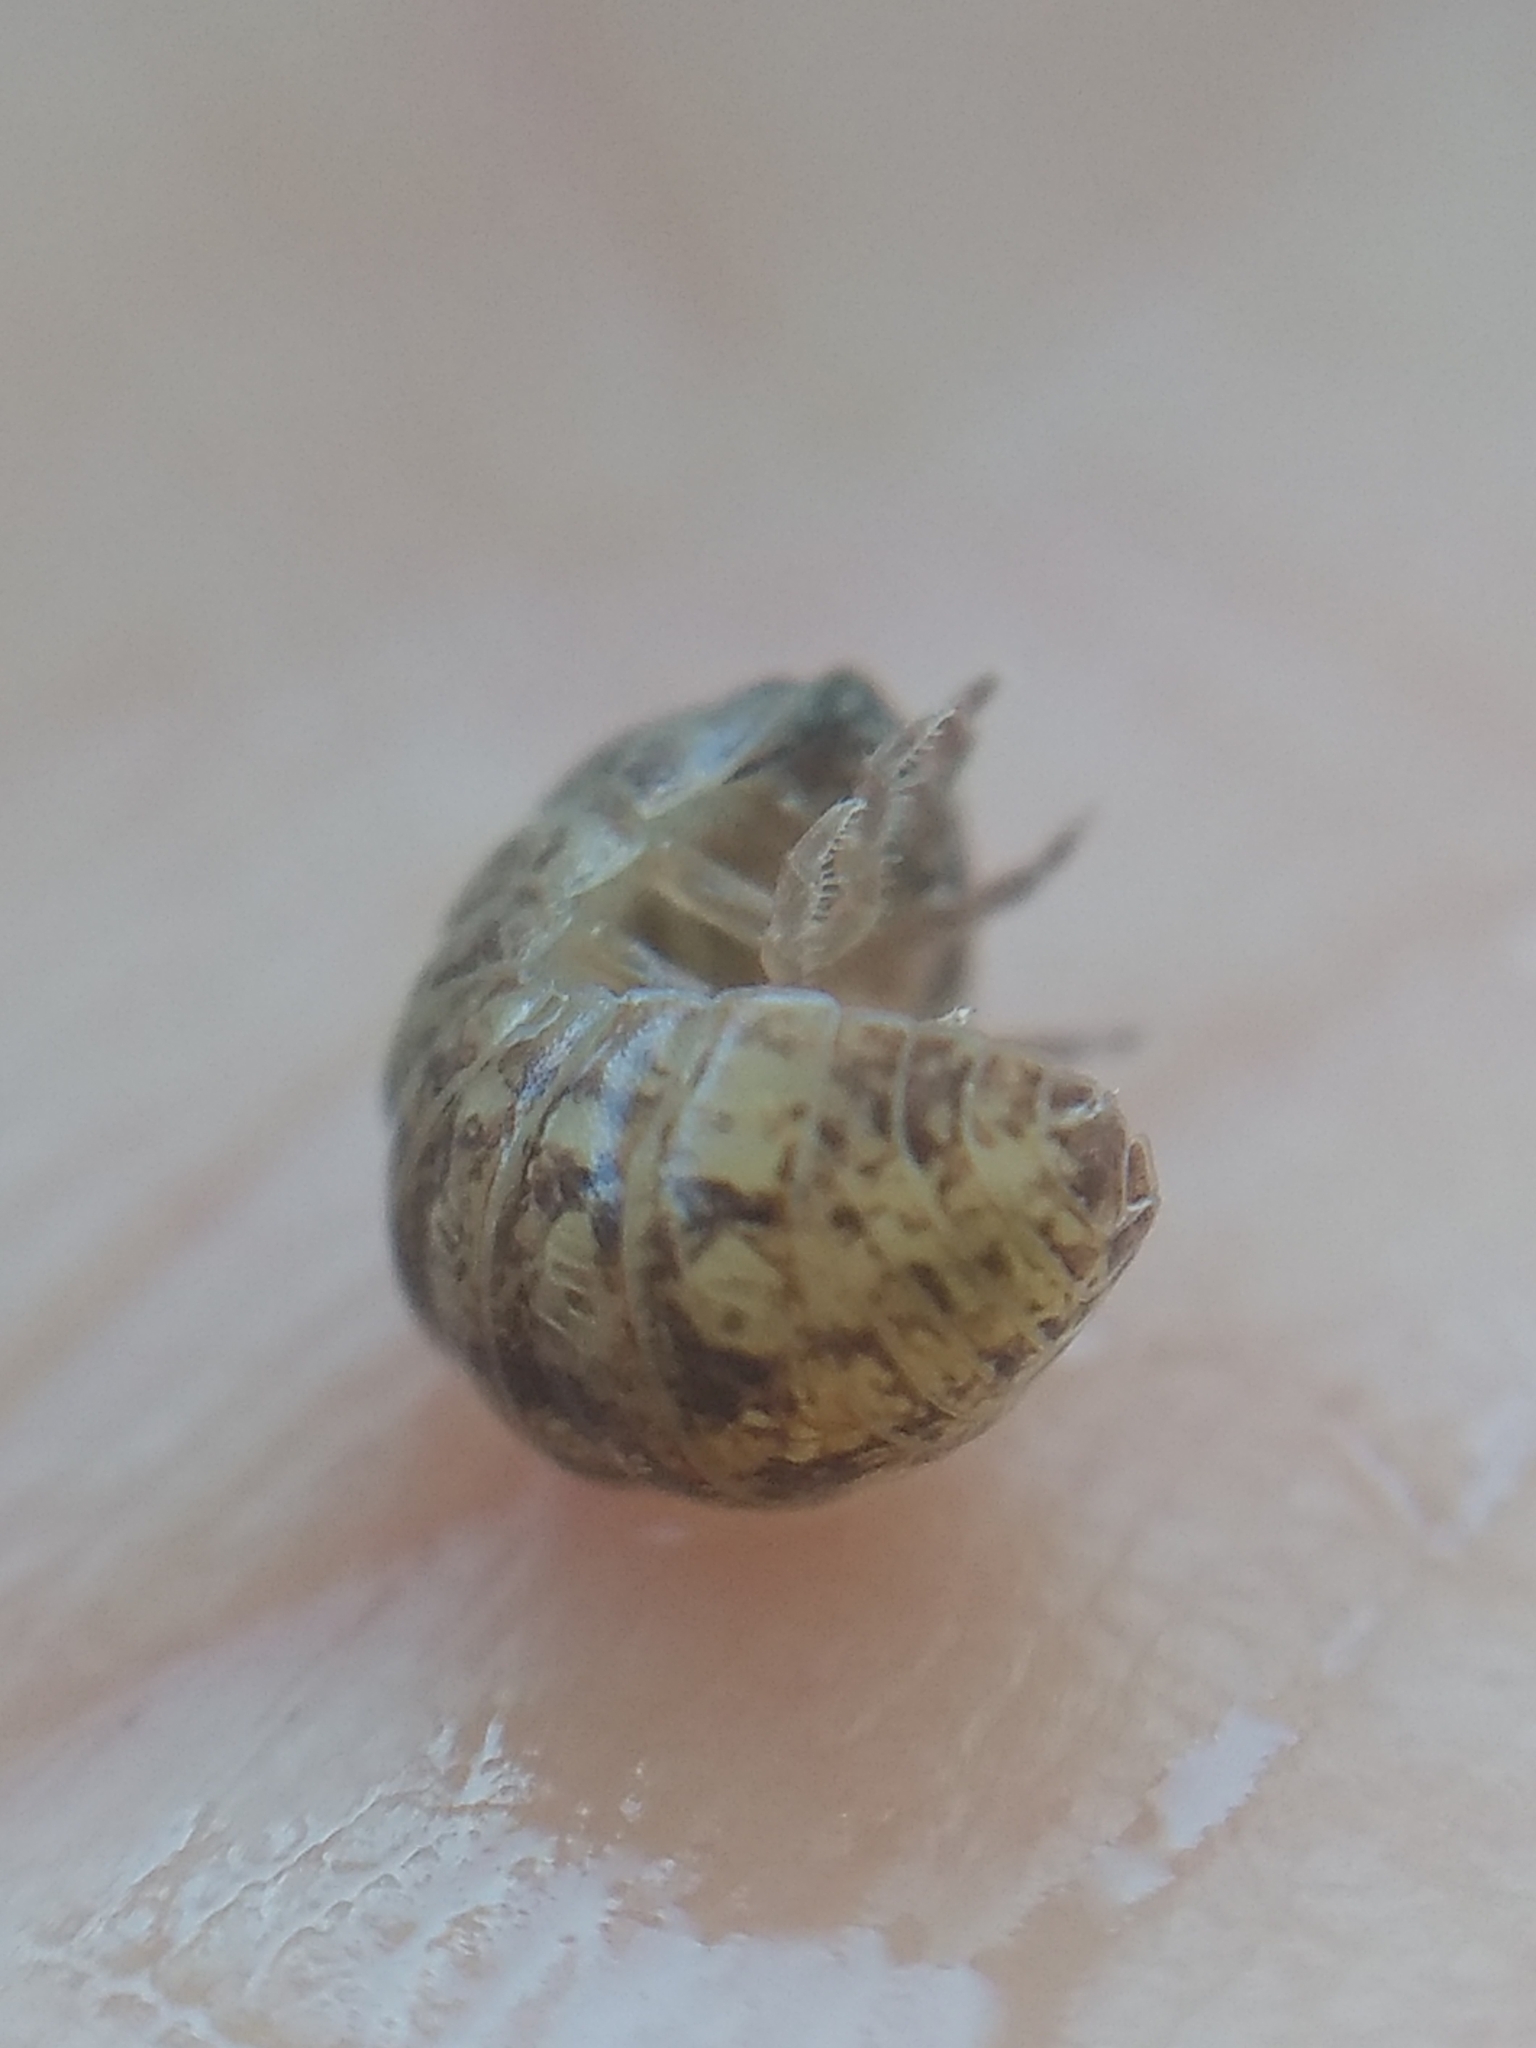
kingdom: Animalia
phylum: Arthropoda
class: Malacostraca
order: Isopoda
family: Armadillidiidae
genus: Armadillidium
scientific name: Armadillidium vulgare
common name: Common pill woodlouse
